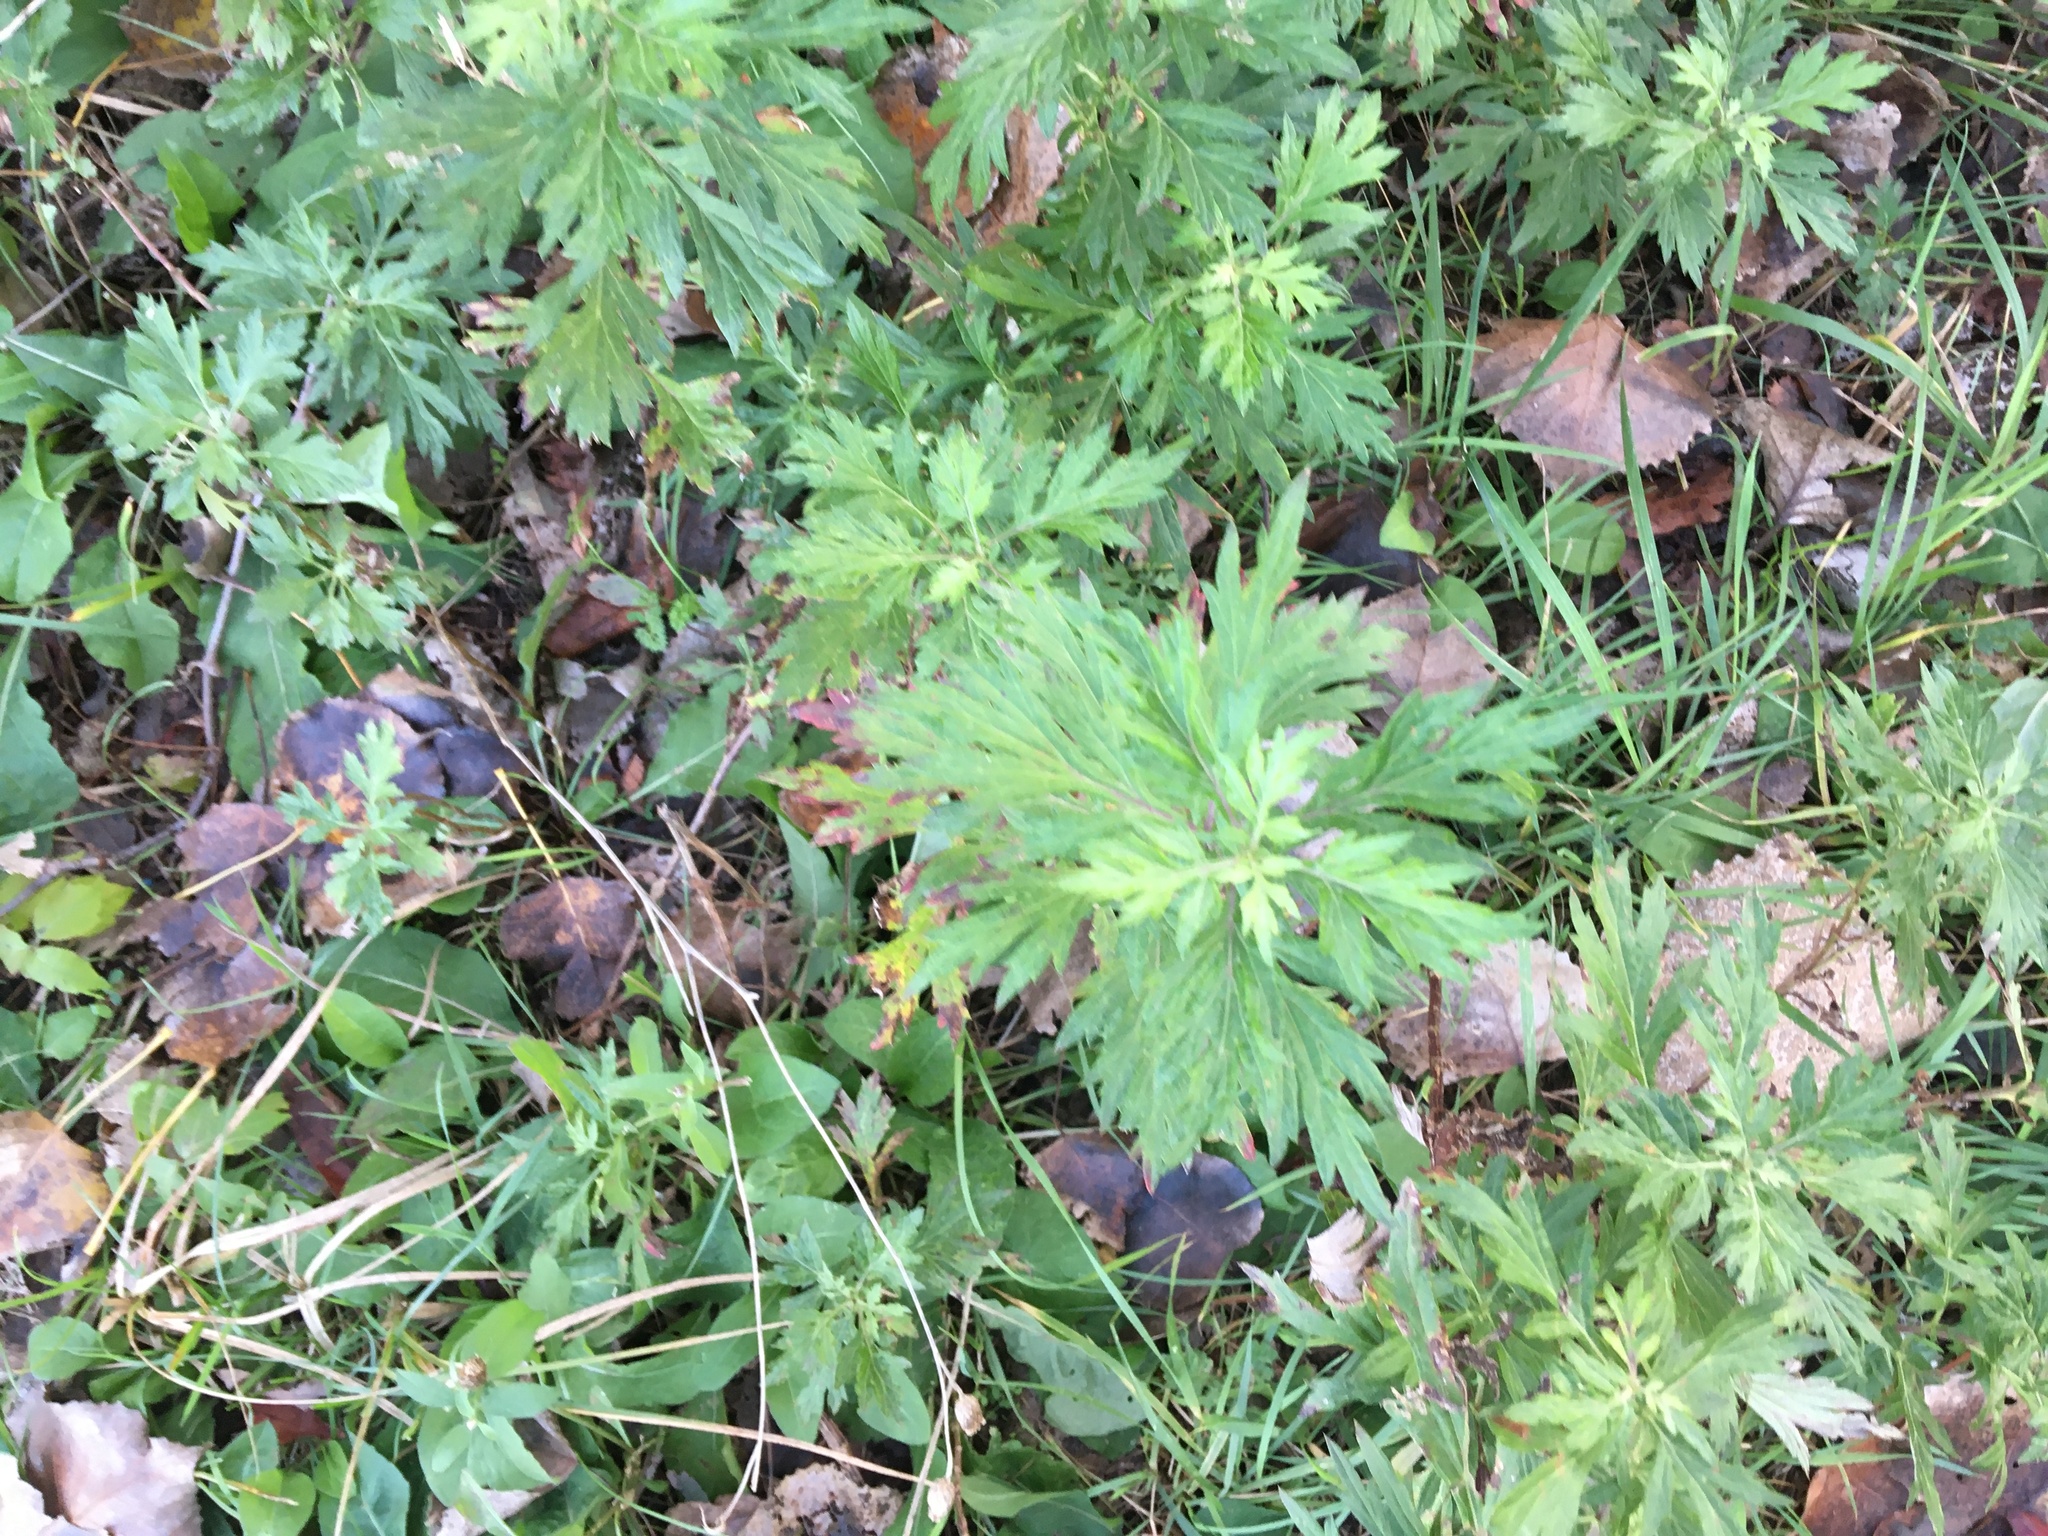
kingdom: Plantae
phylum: Tracheophyta
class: Magnoliopsida
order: Asterales
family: Asteraceae
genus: Artemisia
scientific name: Artemisia vulgaris
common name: Mugwort
